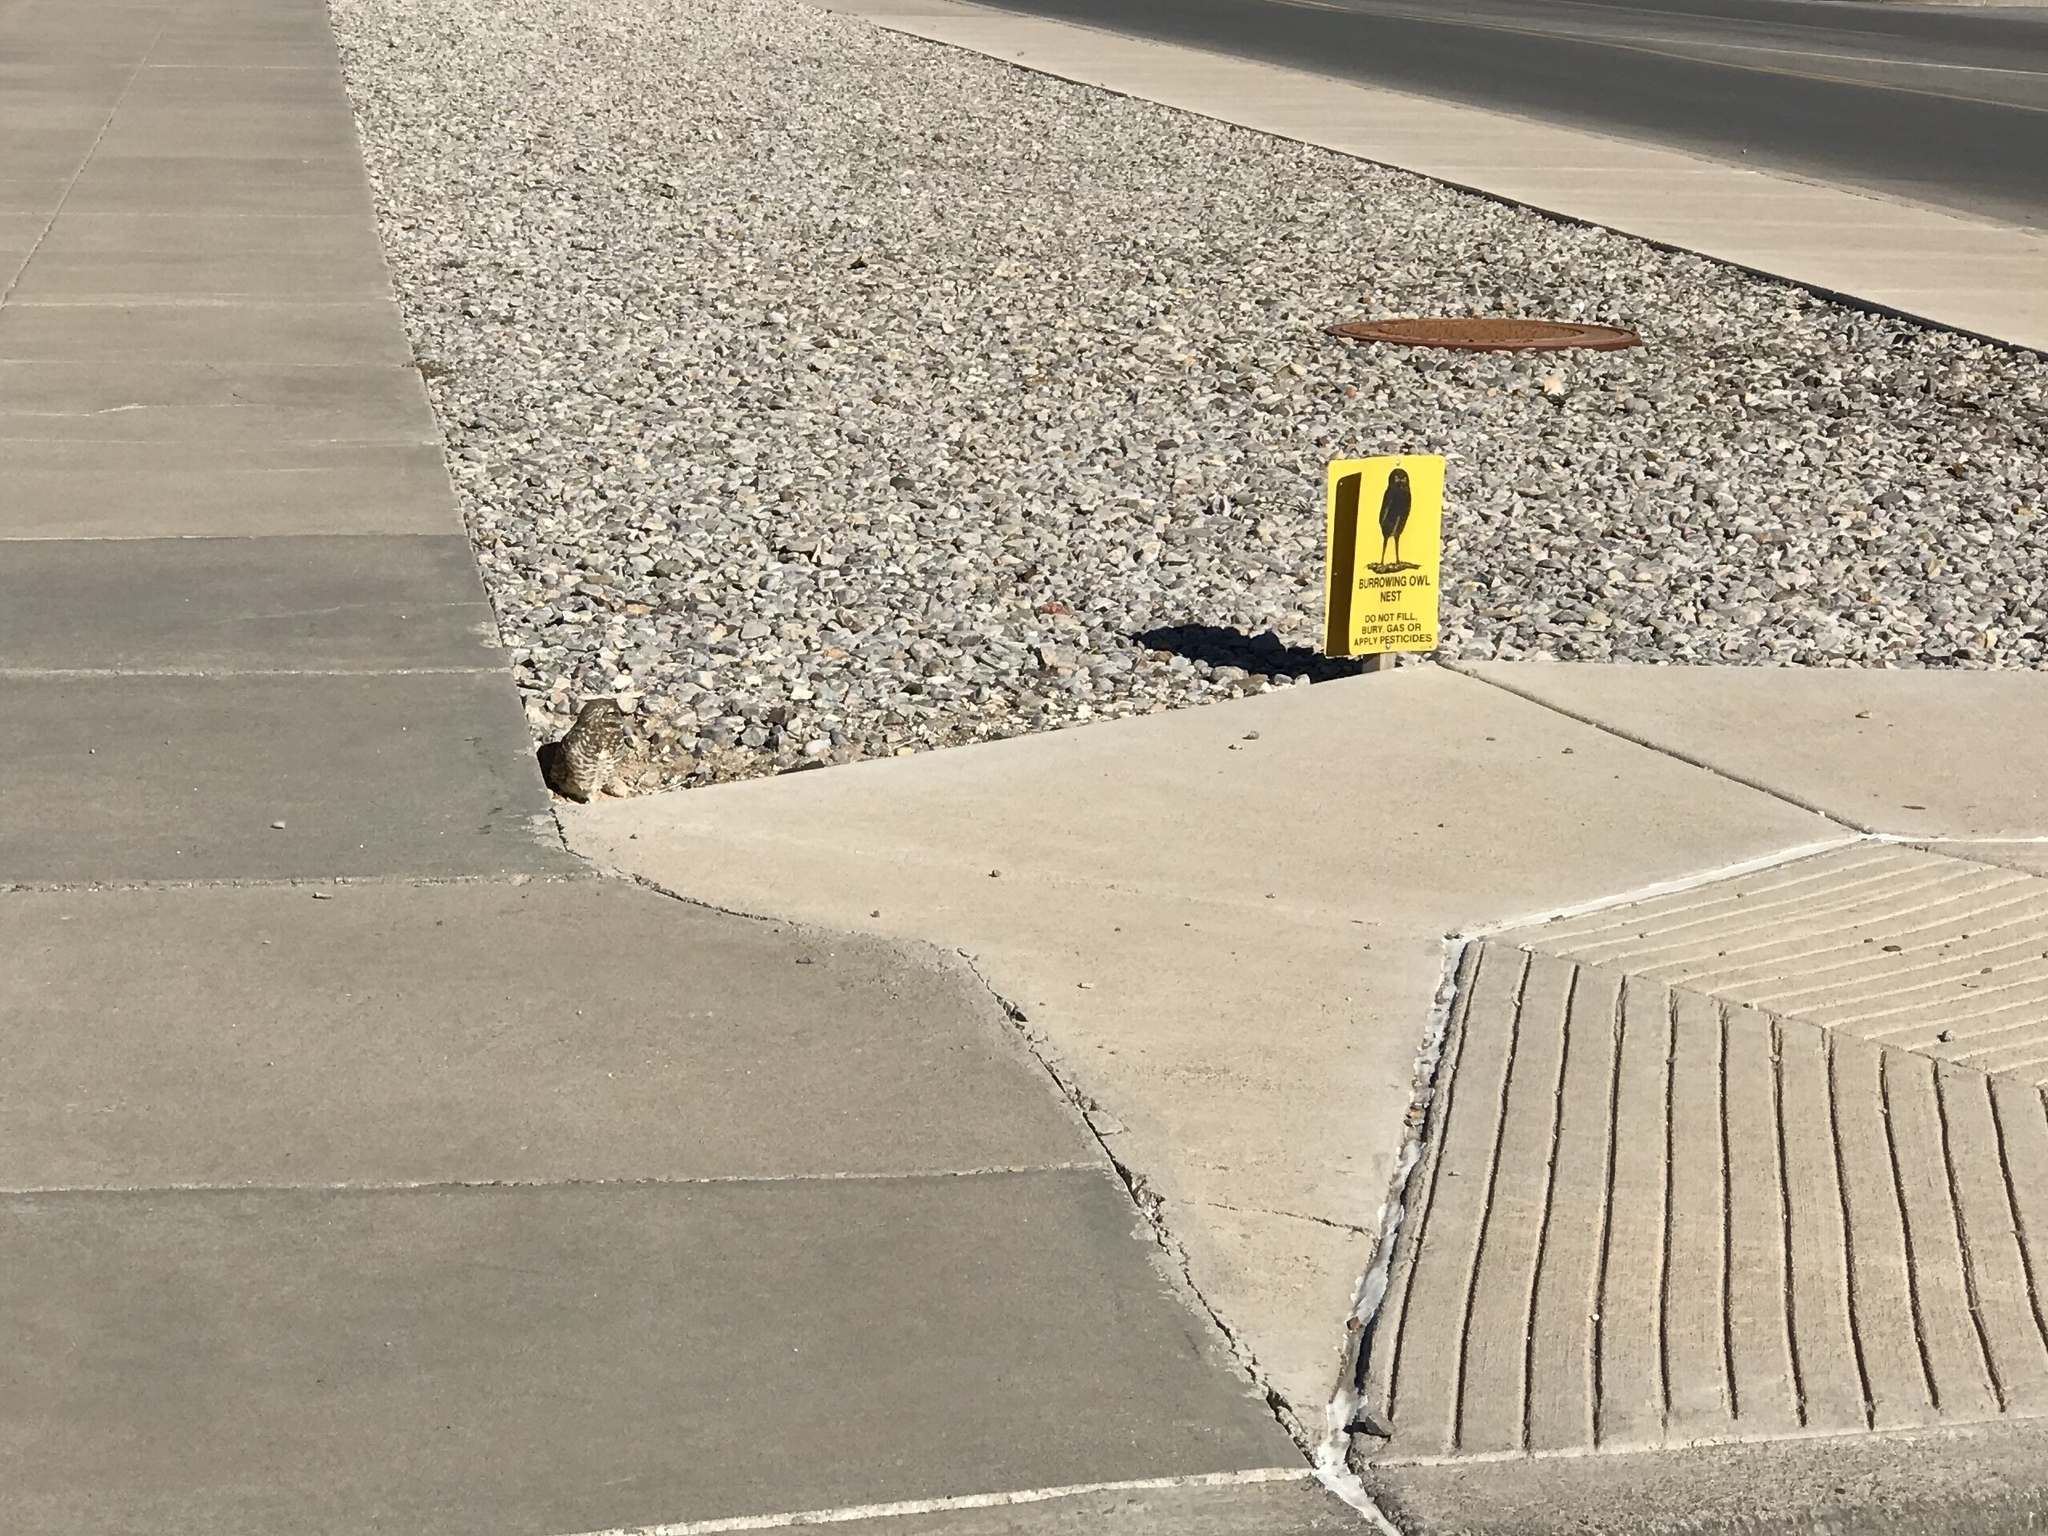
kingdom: Animalia
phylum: Chordata
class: Aves
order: Strigiformes
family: Strigidae
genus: Athene
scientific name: Athene cunicularia
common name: Burrowing owl
